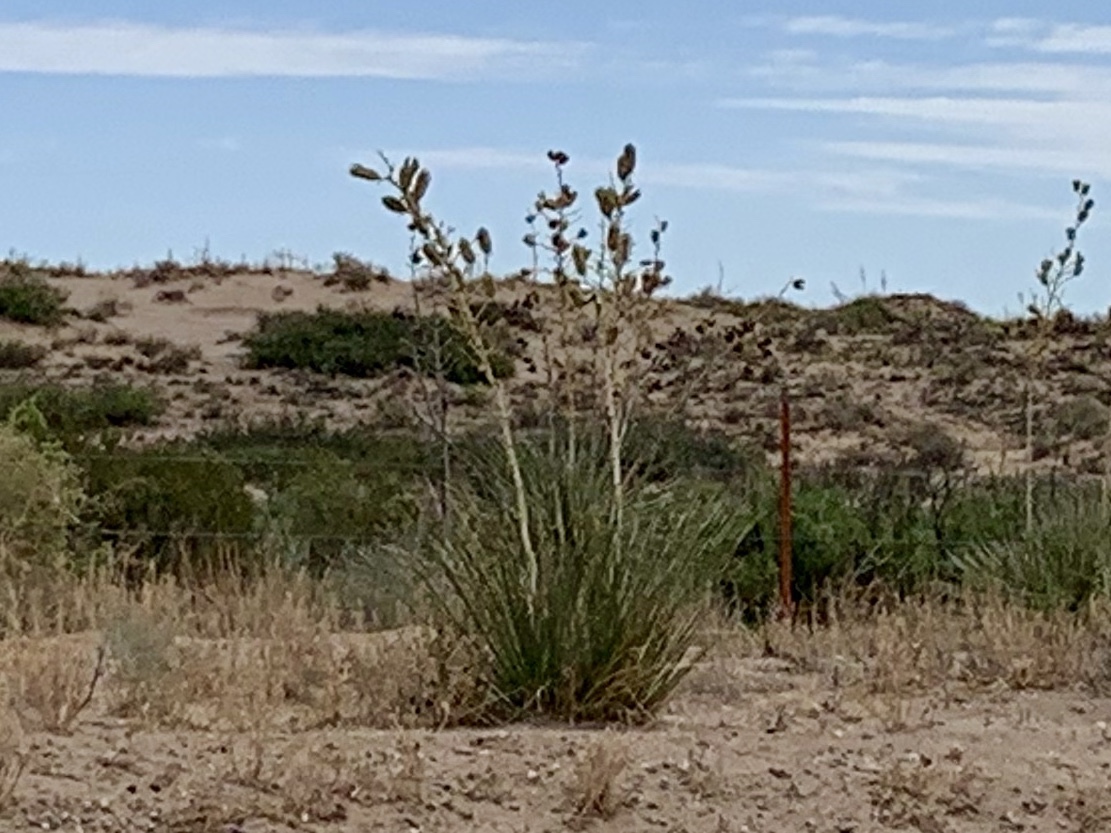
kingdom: Plantae
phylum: Tracheophyta
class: Liliopsida
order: Asparagales
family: Asparagaceae
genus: Yucca
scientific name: Yucca elata
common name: Palmella
